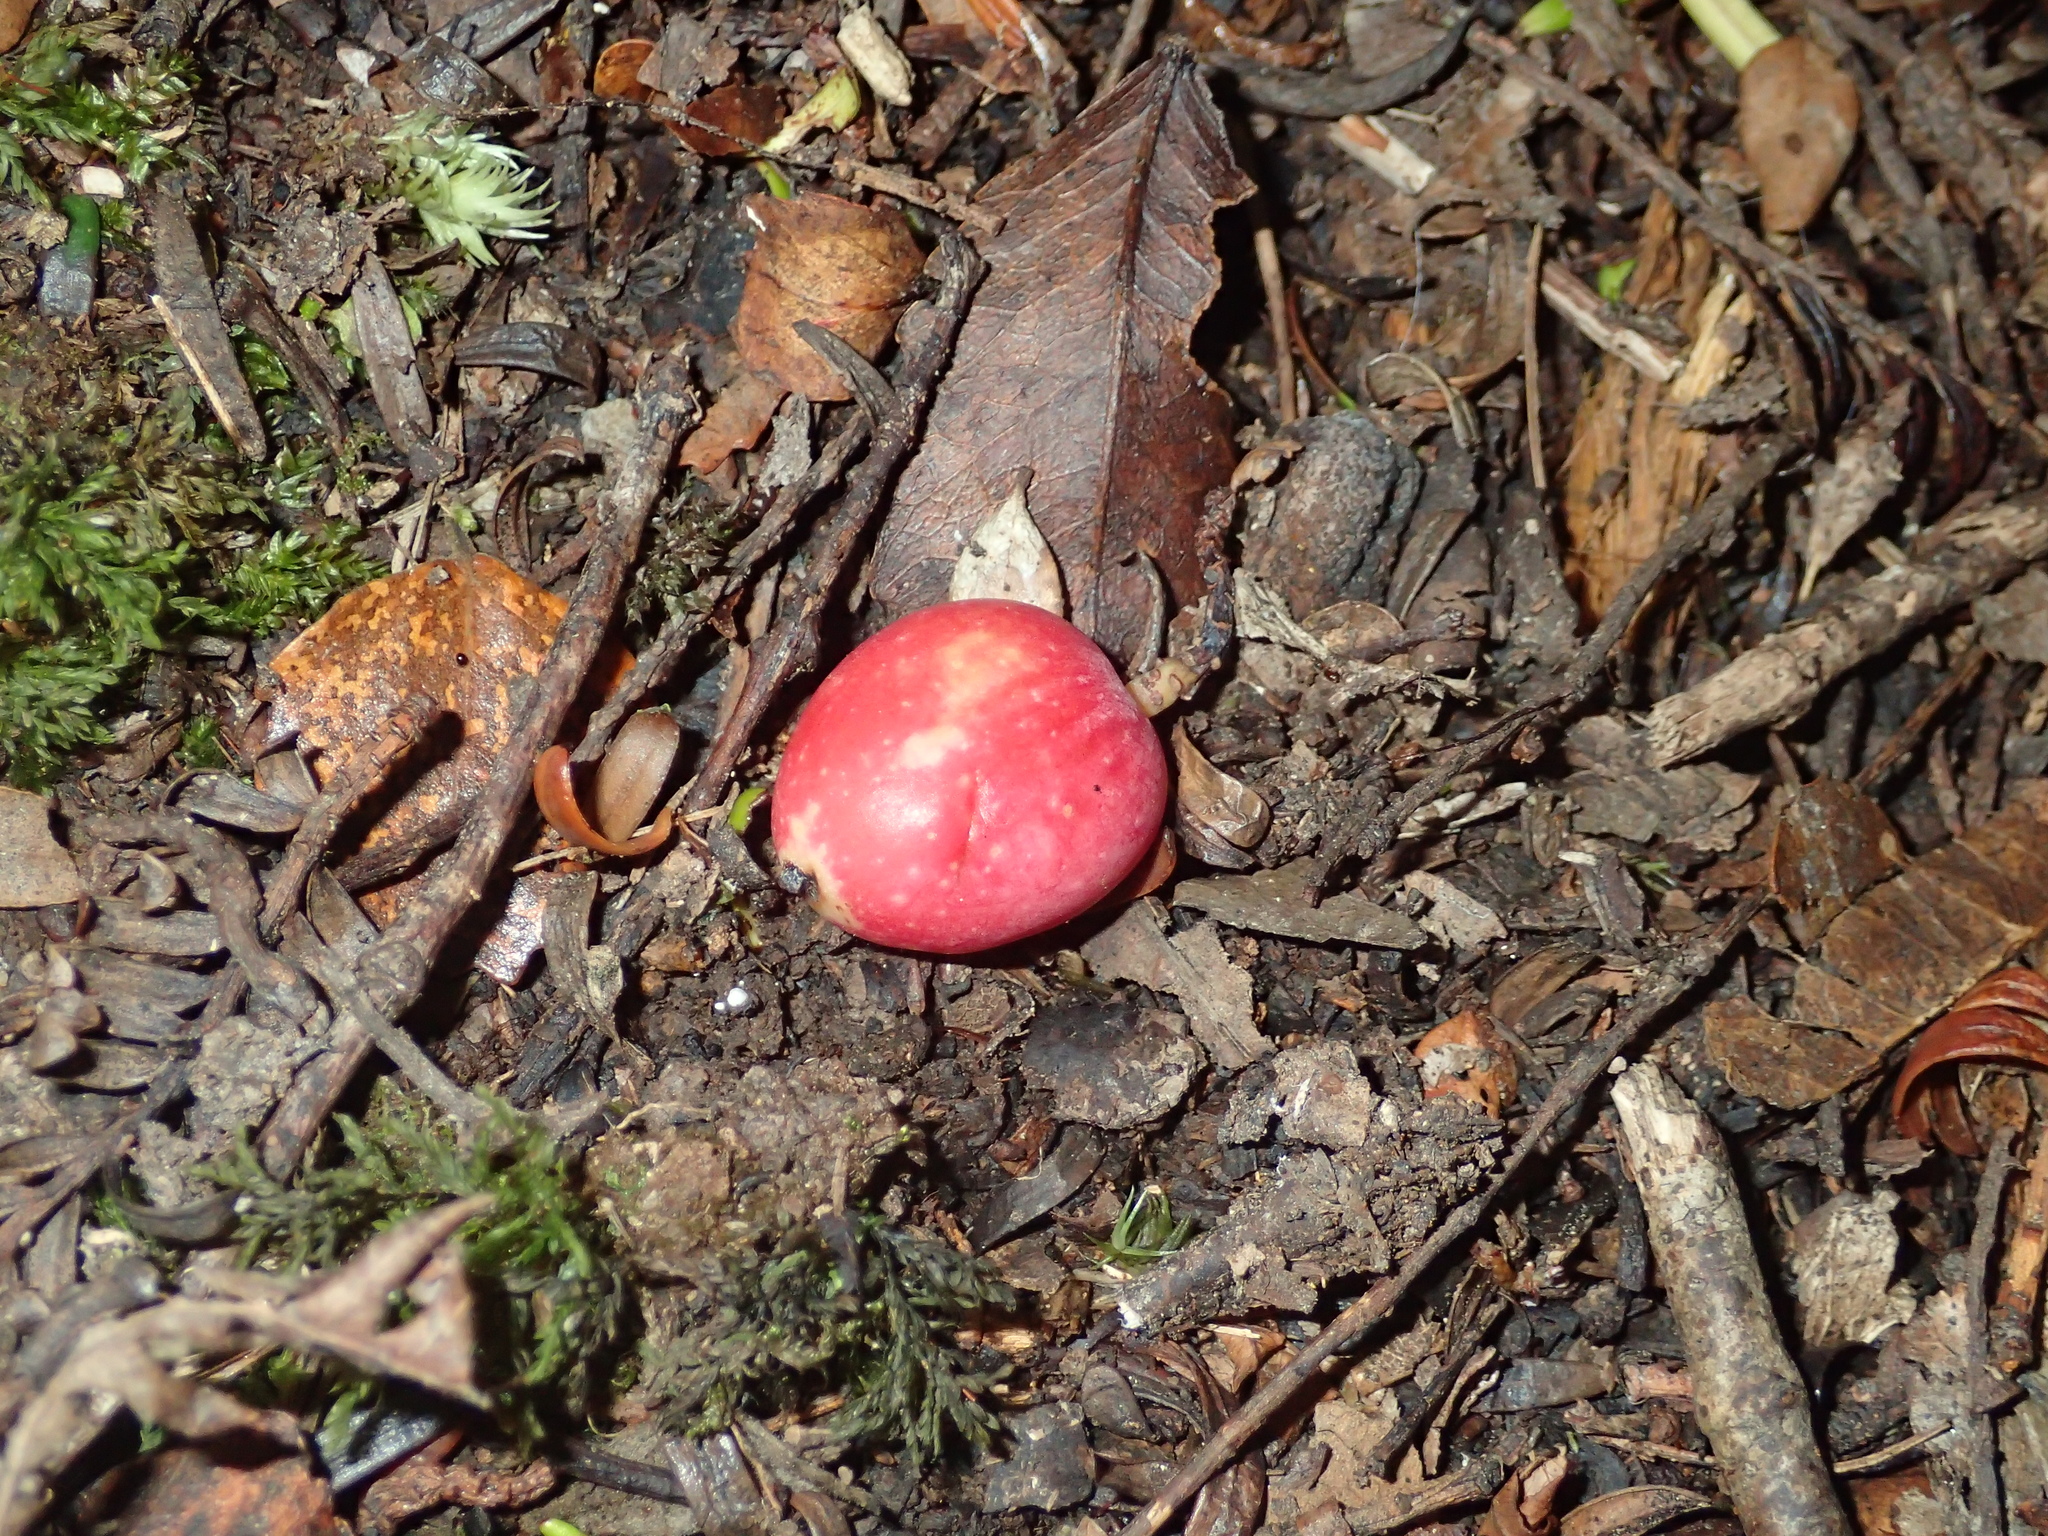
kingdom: Plantae
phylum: Tracheophyta
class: Pinopsida
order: Pinales
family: Podocarpaceae
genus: Prumnopitys
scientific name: Prumnopitys ferruginea
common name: Brown pine
